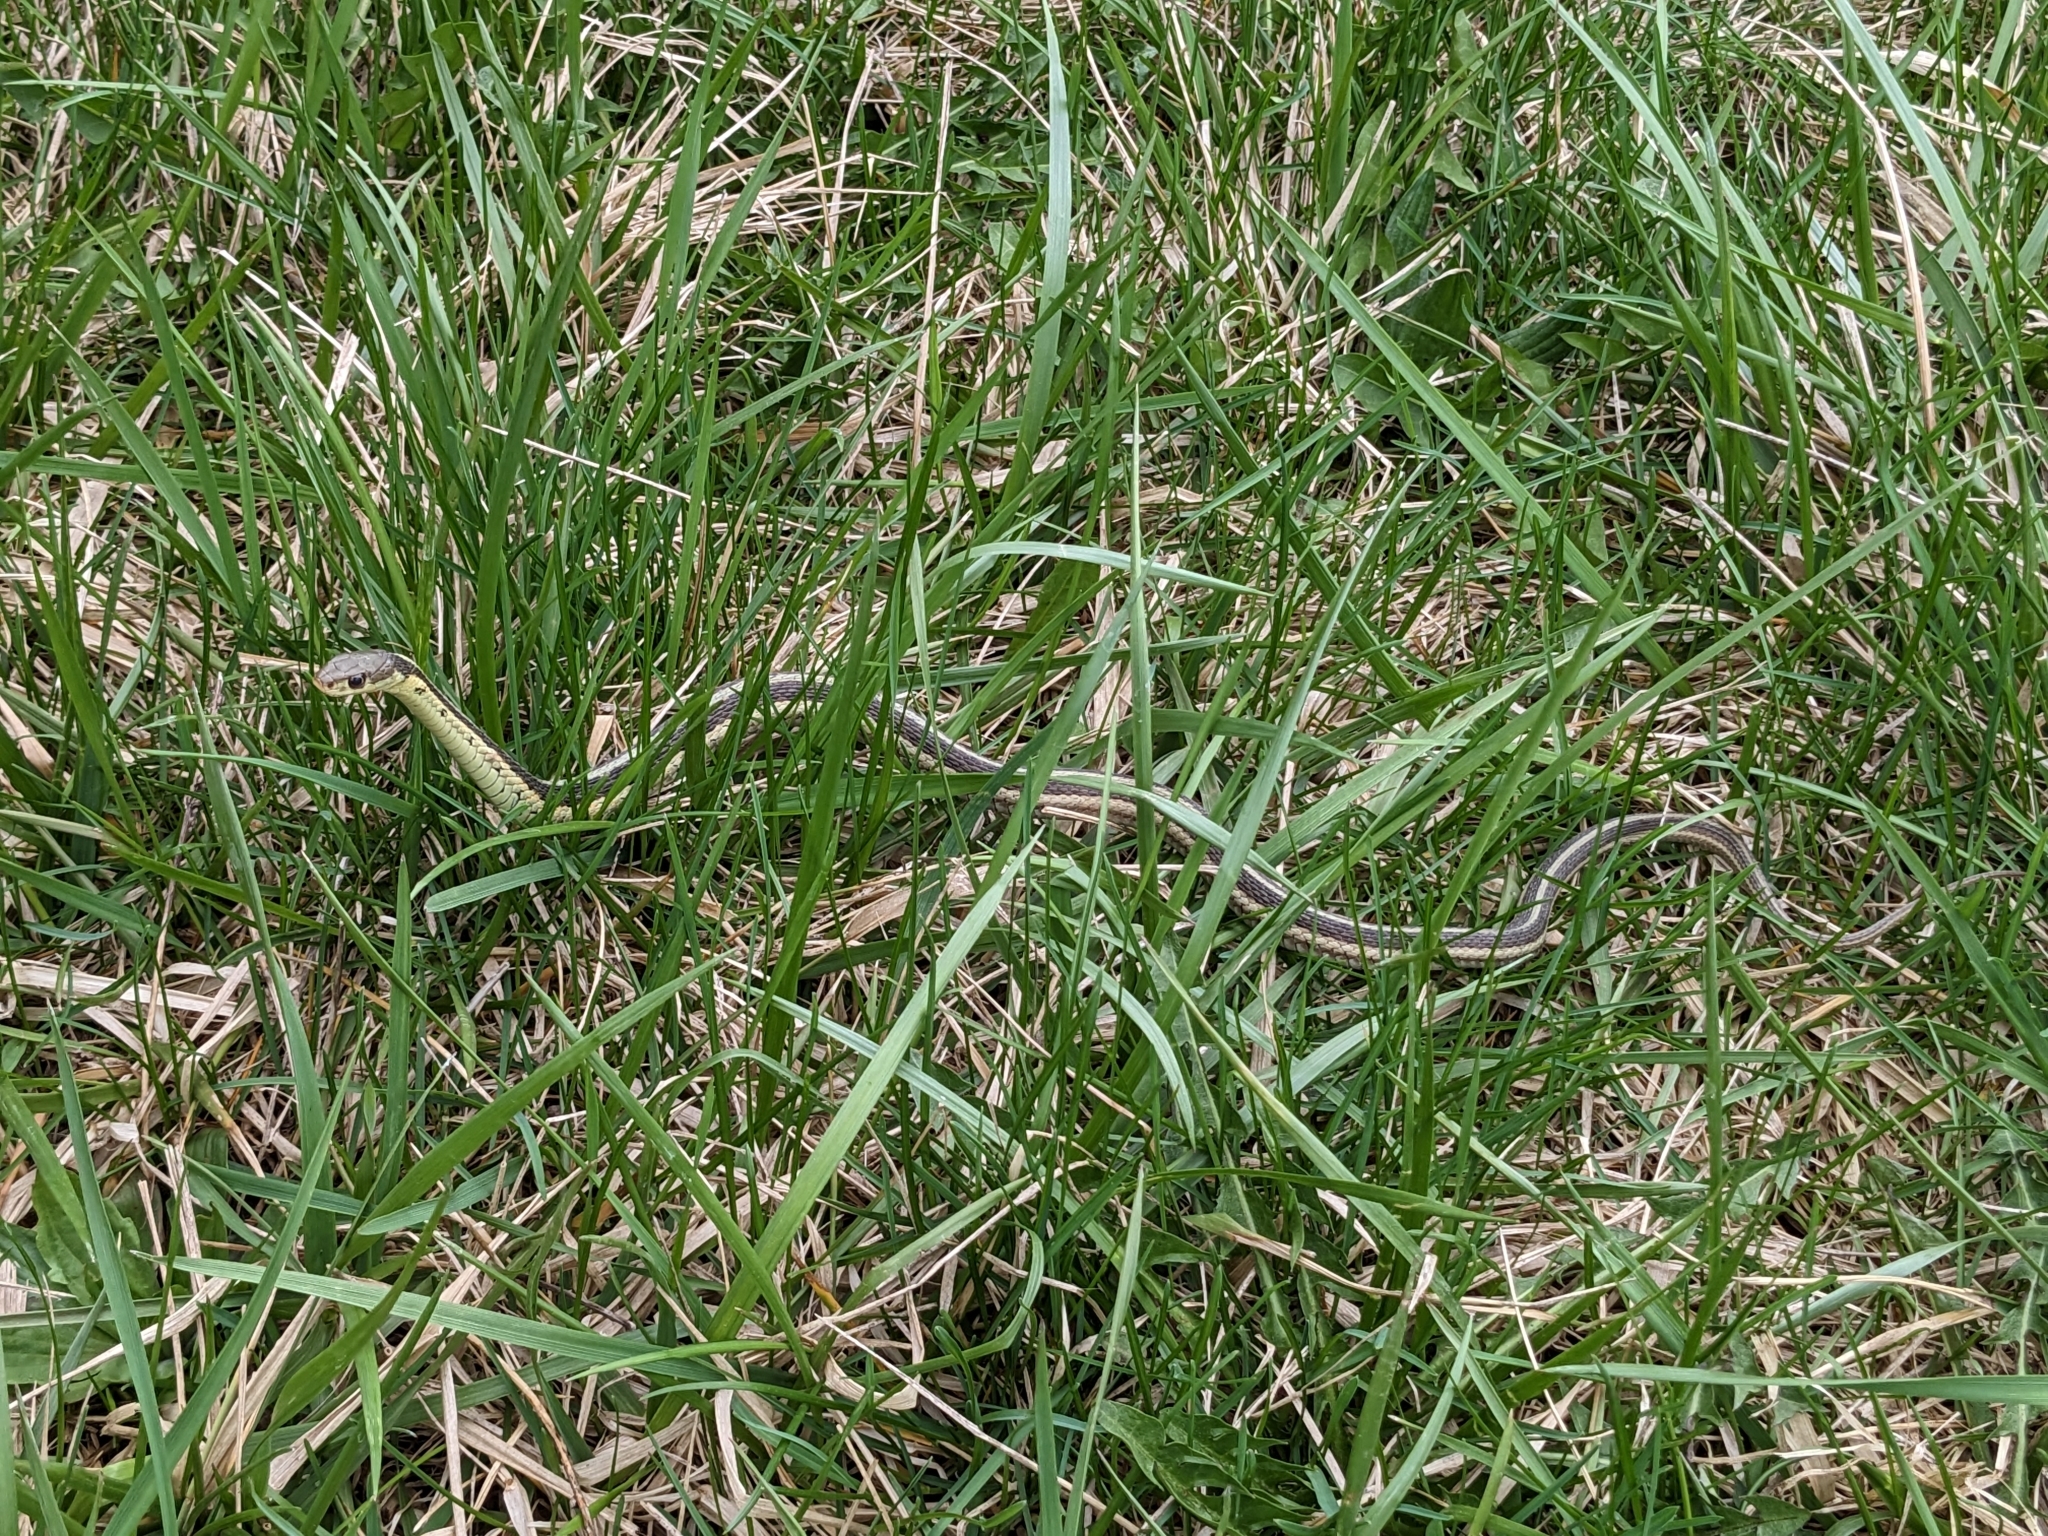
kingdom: Animalia
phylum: Chordata
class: Squamata
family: Colubridae
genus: Thamnophis
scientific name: Thamnophis sirtalis
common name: Common garter snake
